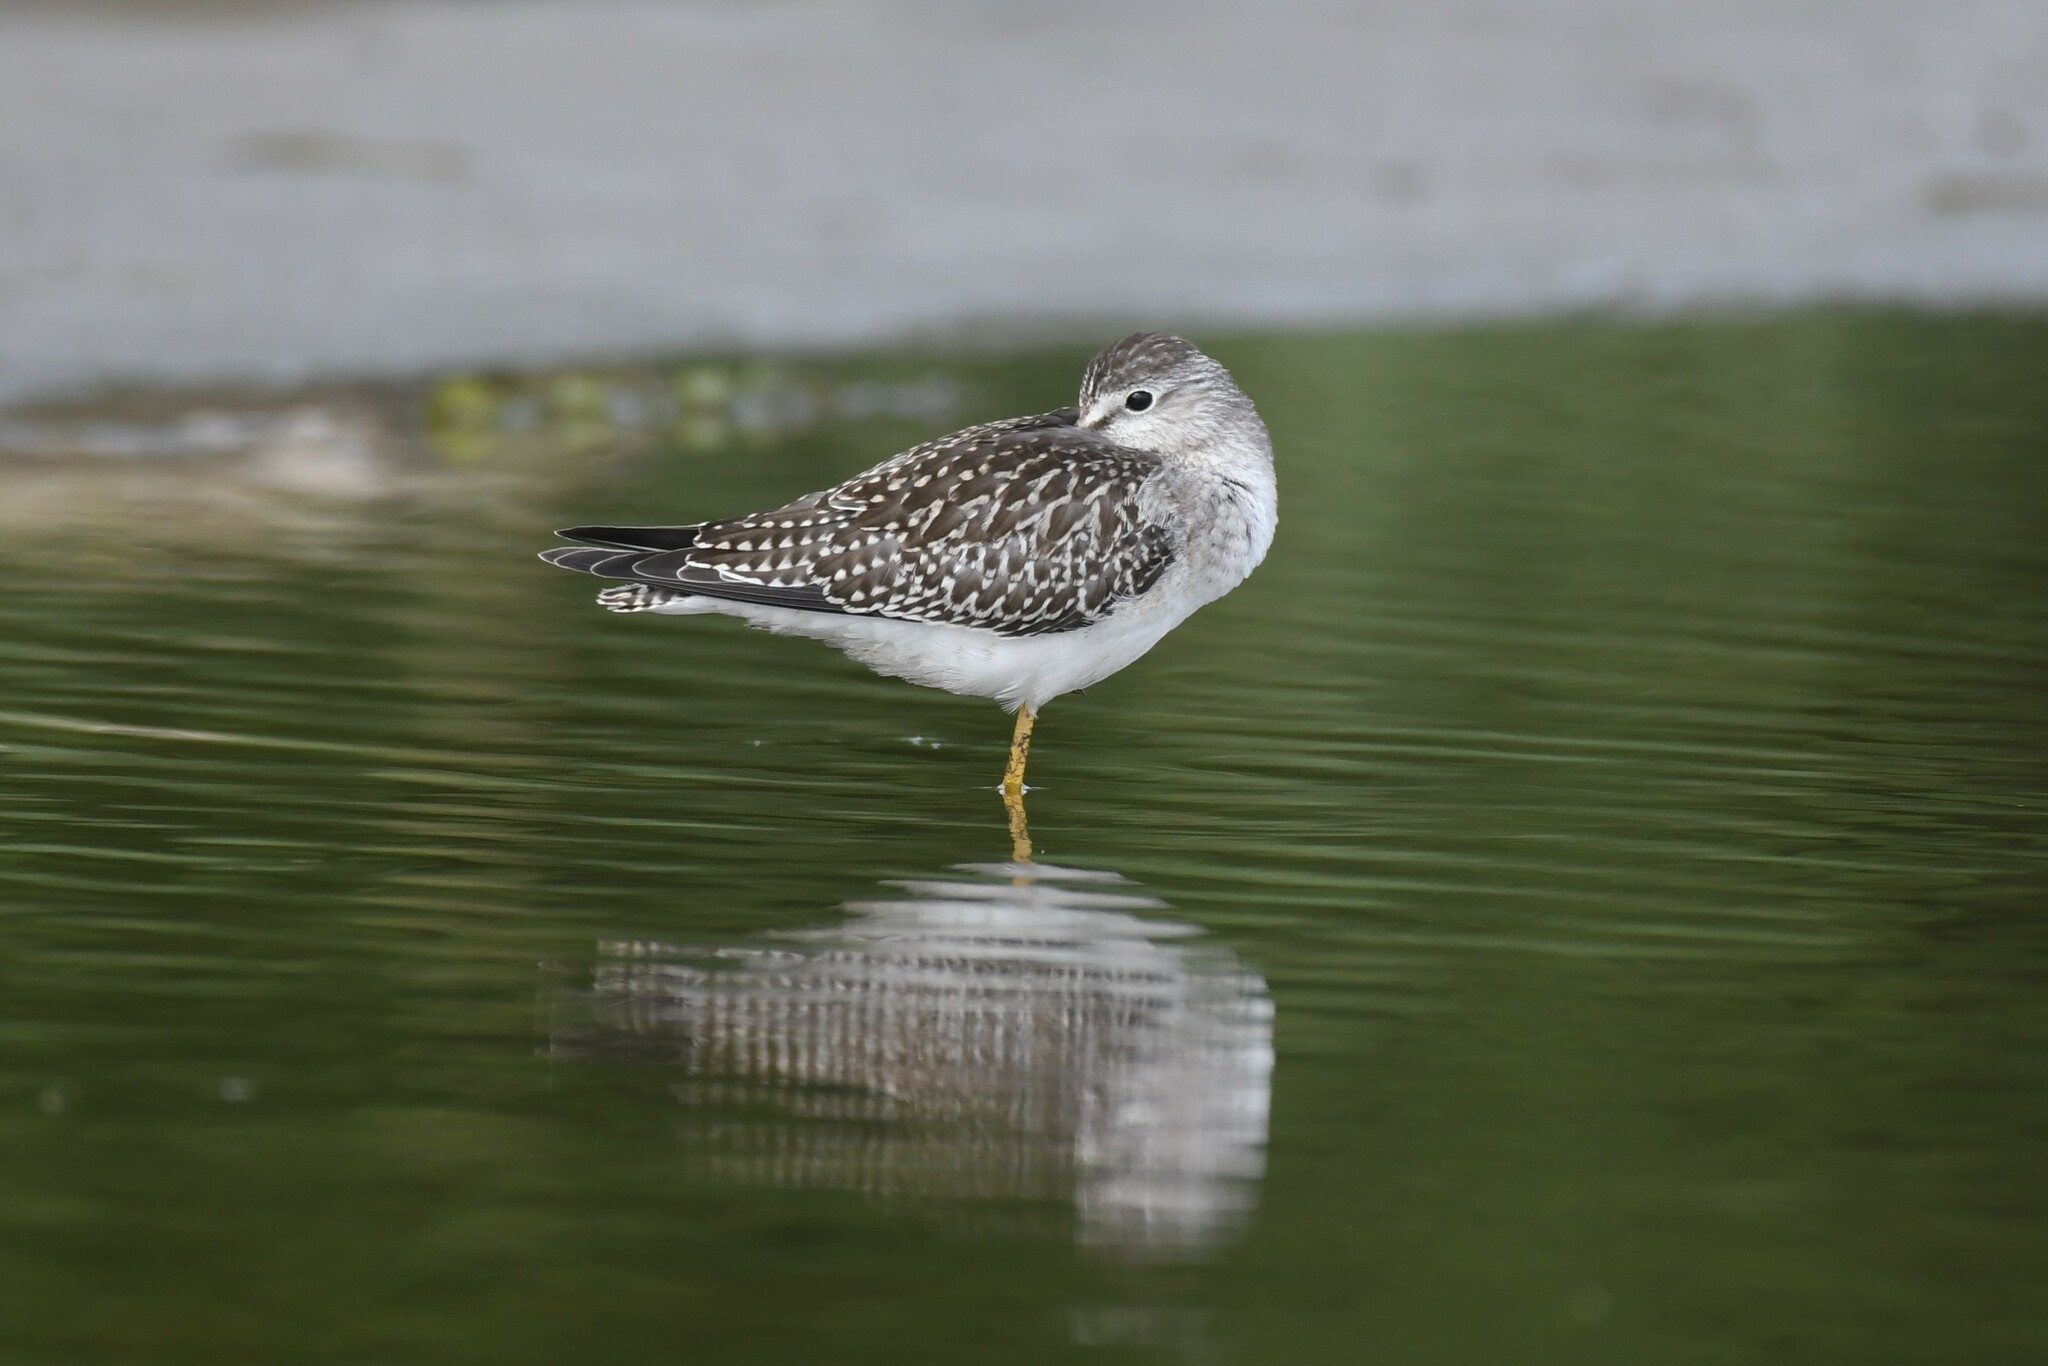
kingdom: Animalia
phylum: Chordata
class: Aves
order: Charadriiformes
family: Scolopacidae
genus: Tringa
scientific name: Tringa flavipes
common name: Lesser yellowlegs
